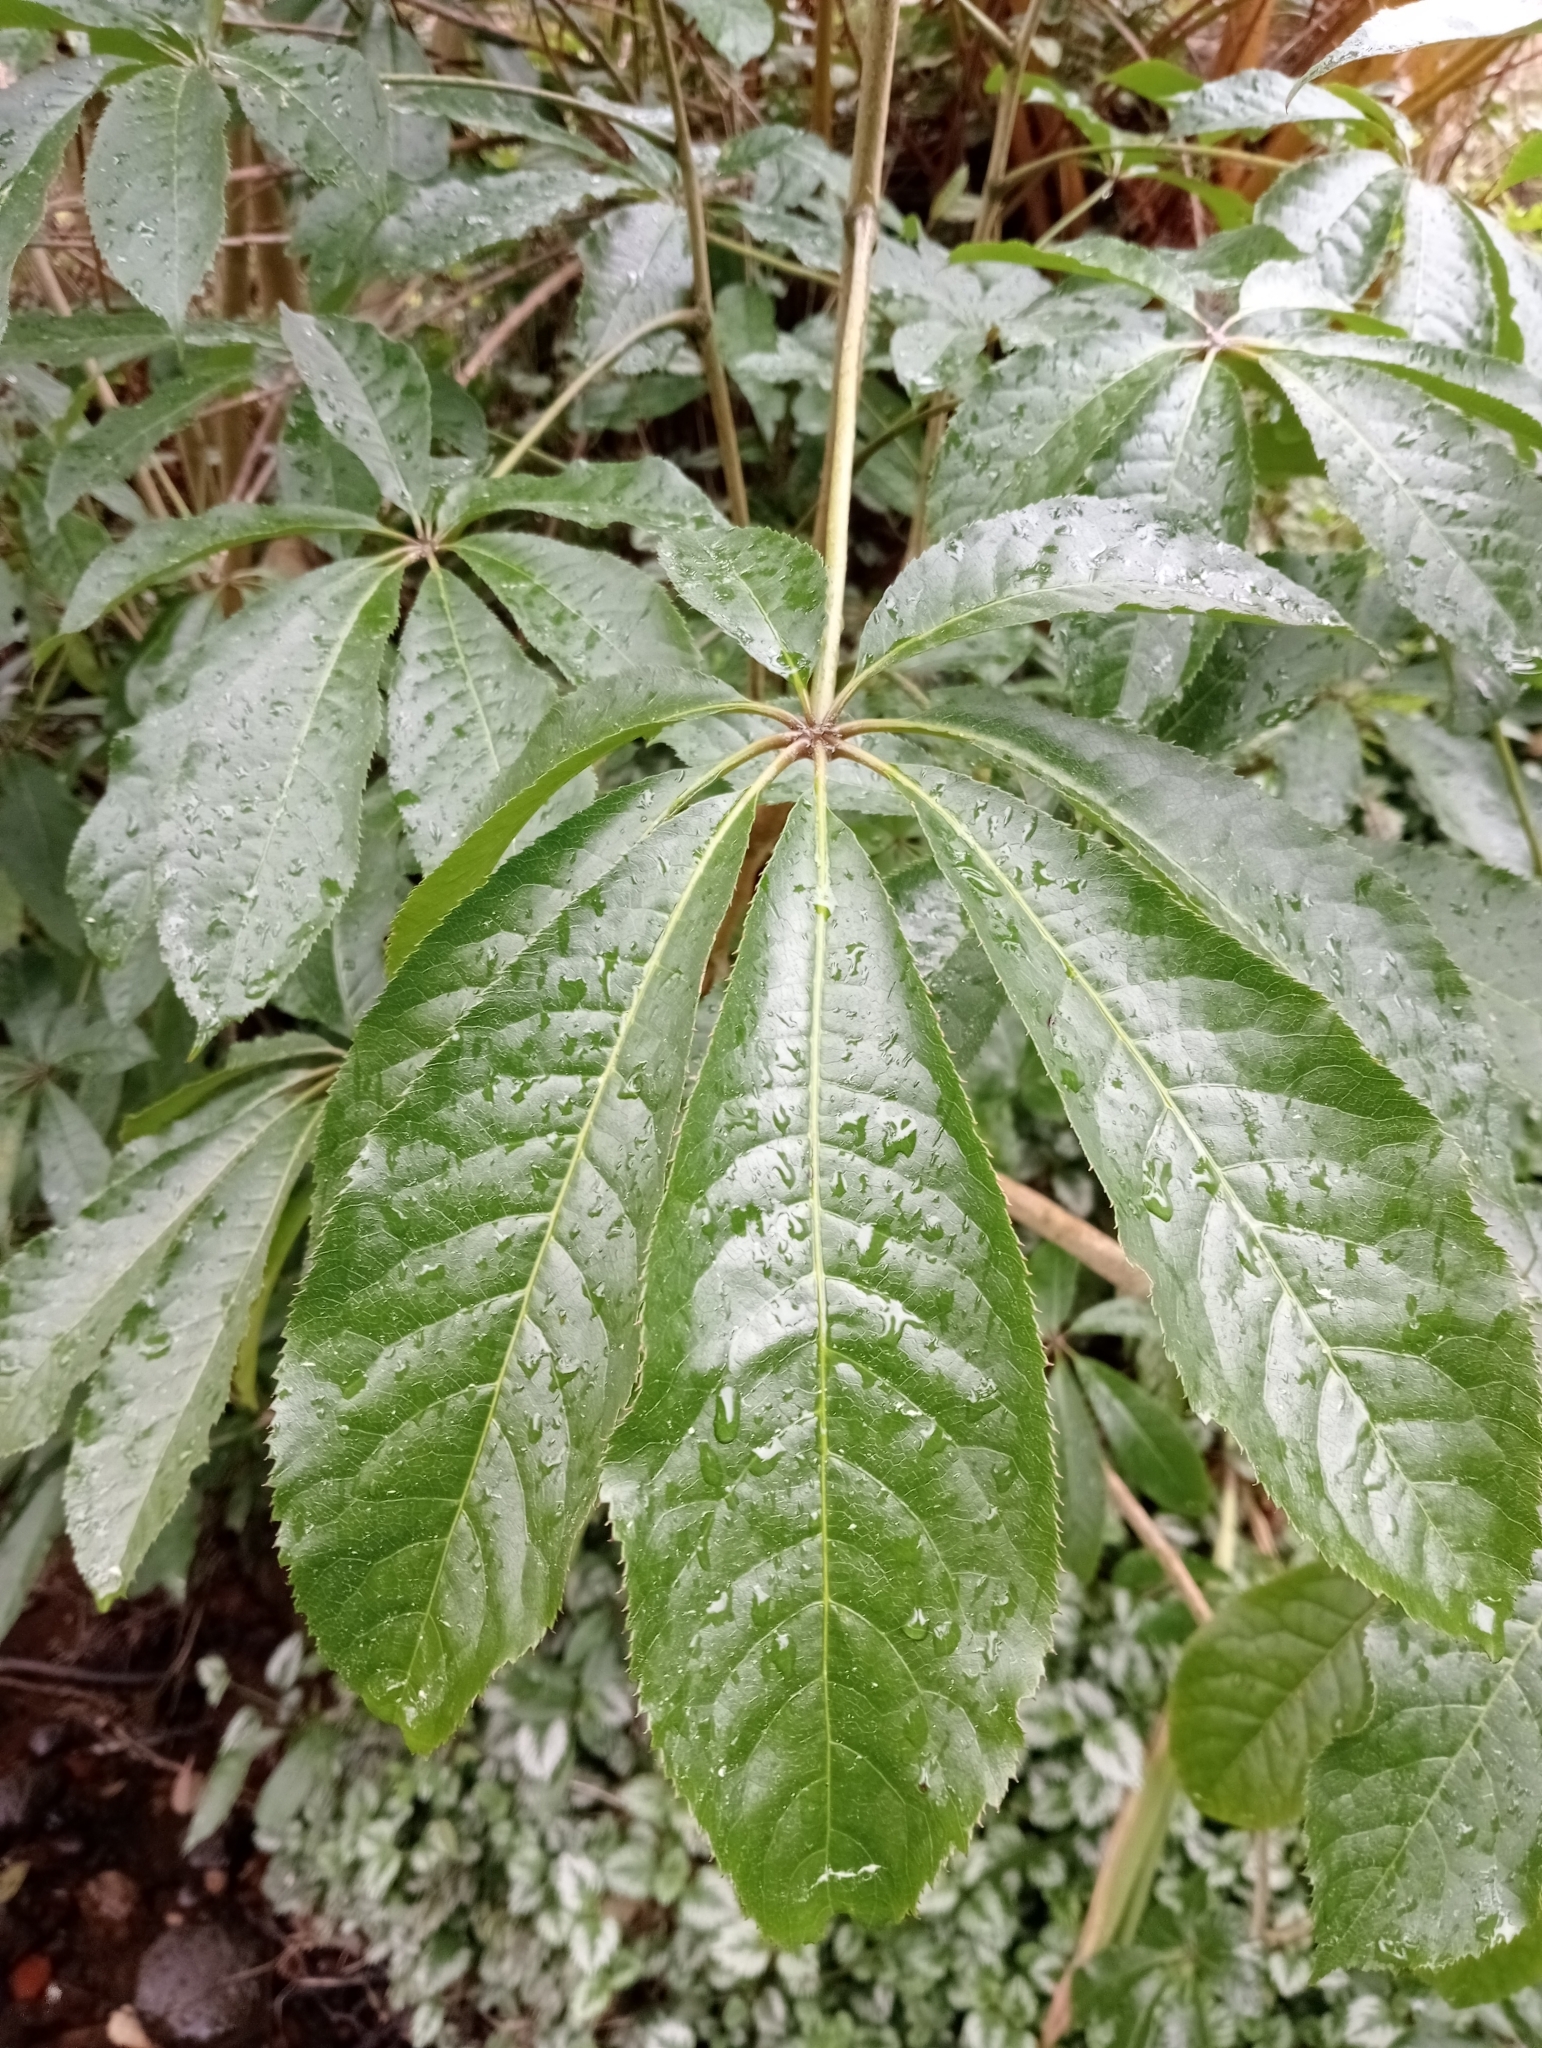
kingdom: Plantae
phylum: Tracheophyta
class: Magnoliopsida
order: Apiales
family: Araliaceae
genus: Schefflera
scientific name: Schefflera digitata
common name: Pate
